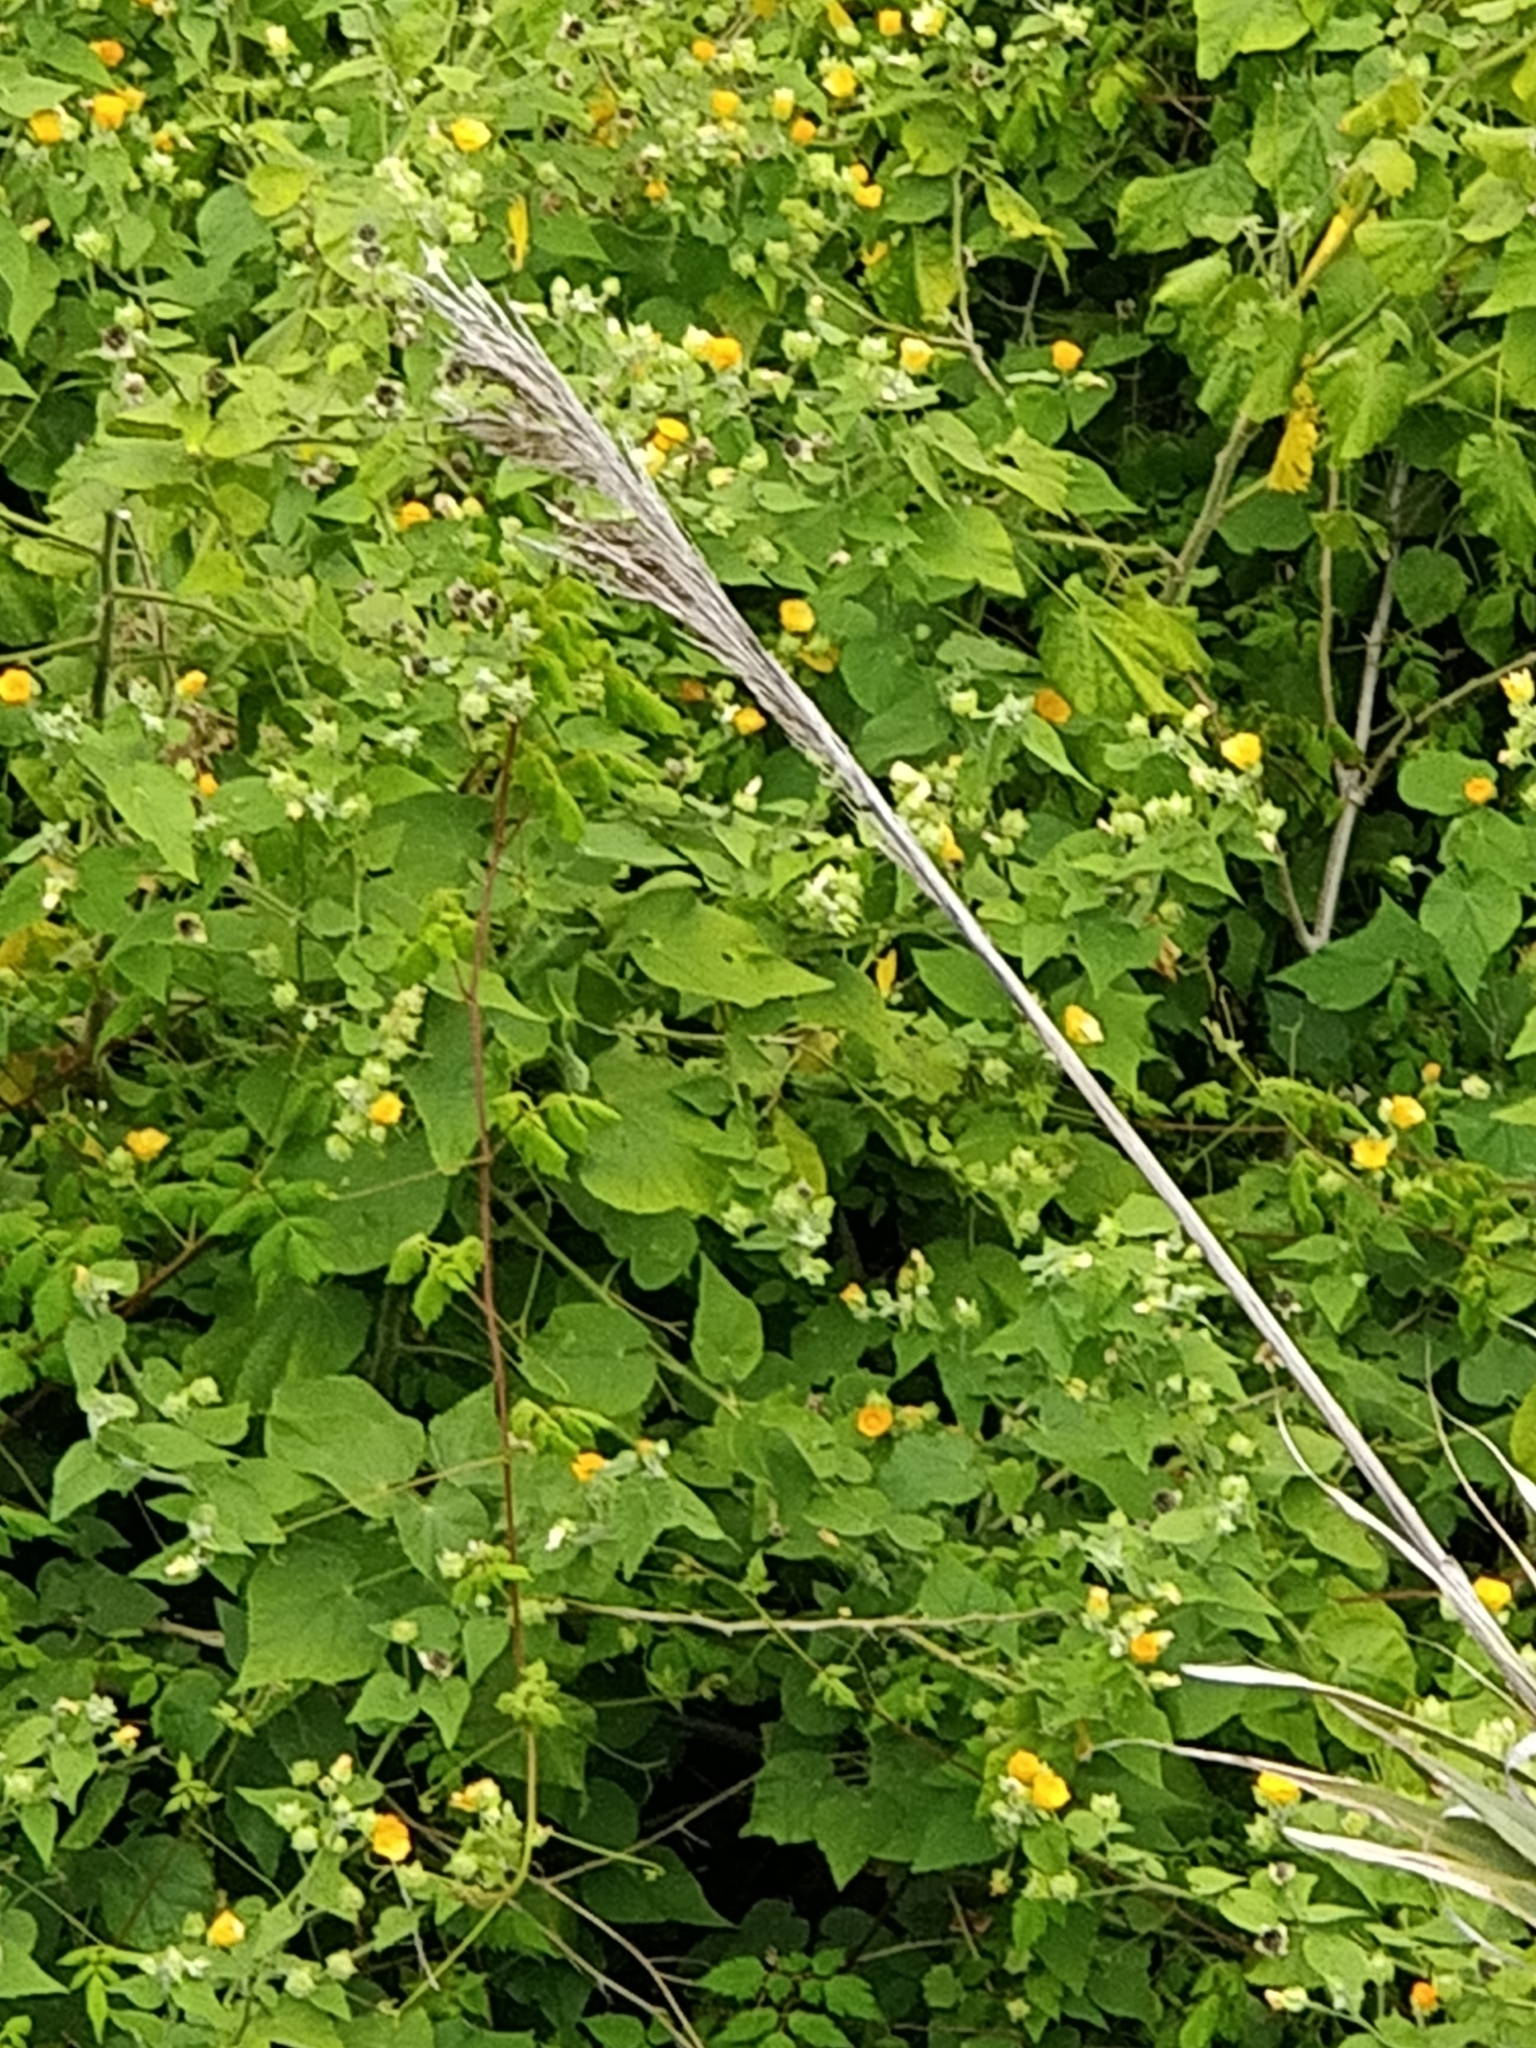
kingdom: Plantae
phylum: Tracheophyta
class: Magnoliopsida
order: Malvales
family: Malvaceae
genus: Abutilon
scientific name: Abutilon grandifolium
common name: Hairy abutilon
